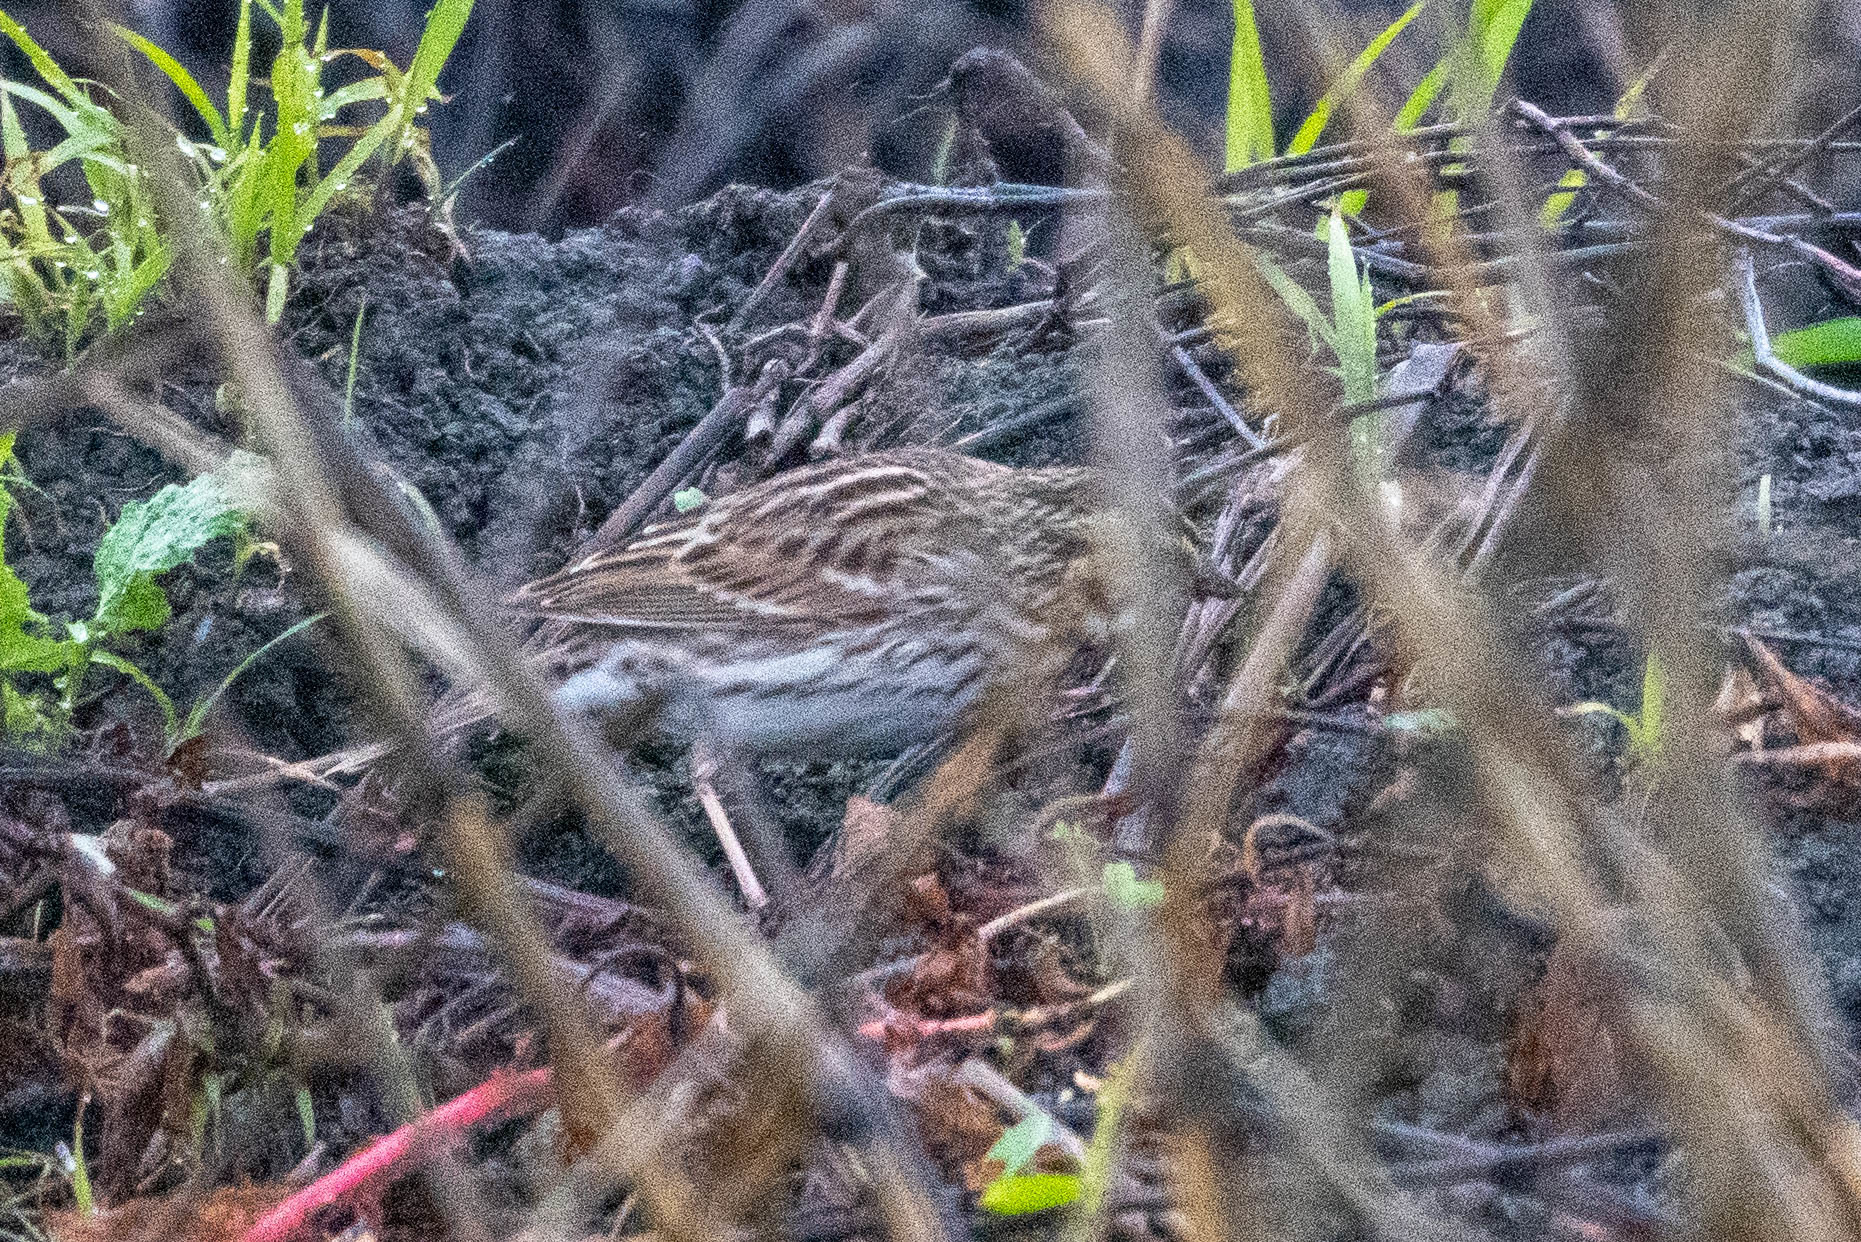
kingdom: Animalia
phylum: Chordata
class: Aves
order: Passeriformes
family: Passerellidae
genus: Passerculus
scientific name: Passerculus sandwichensis
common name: Savannah sparrow
